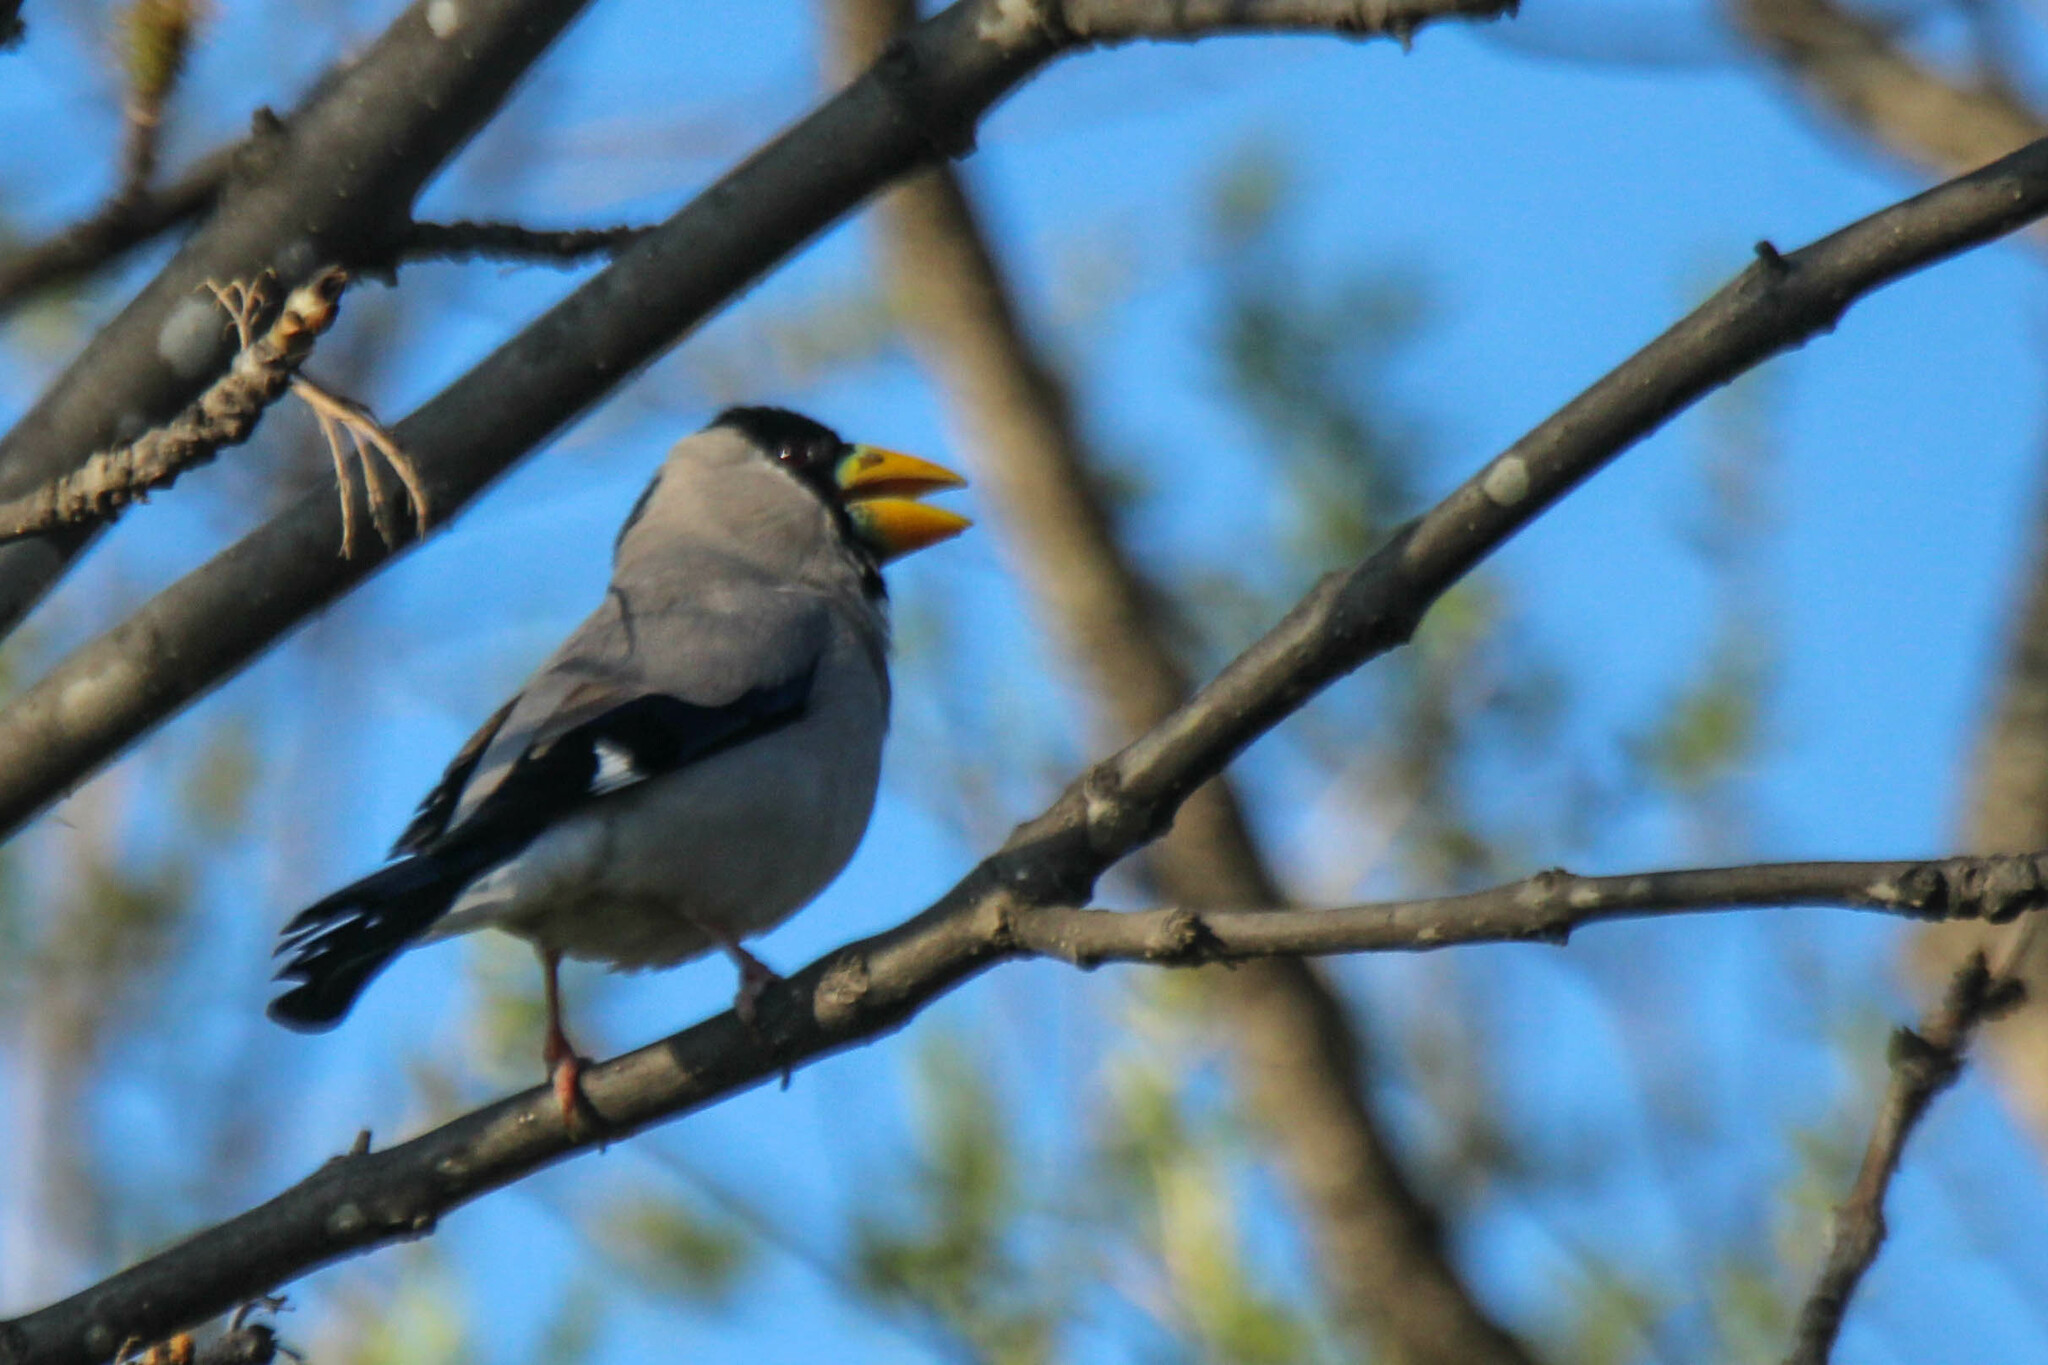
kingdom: Animalia
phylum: Chordata
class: Aves
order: Passeriformes
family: Fringillidae
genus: Eophona
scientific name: Eophona personata
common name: Japanese grosbeak
